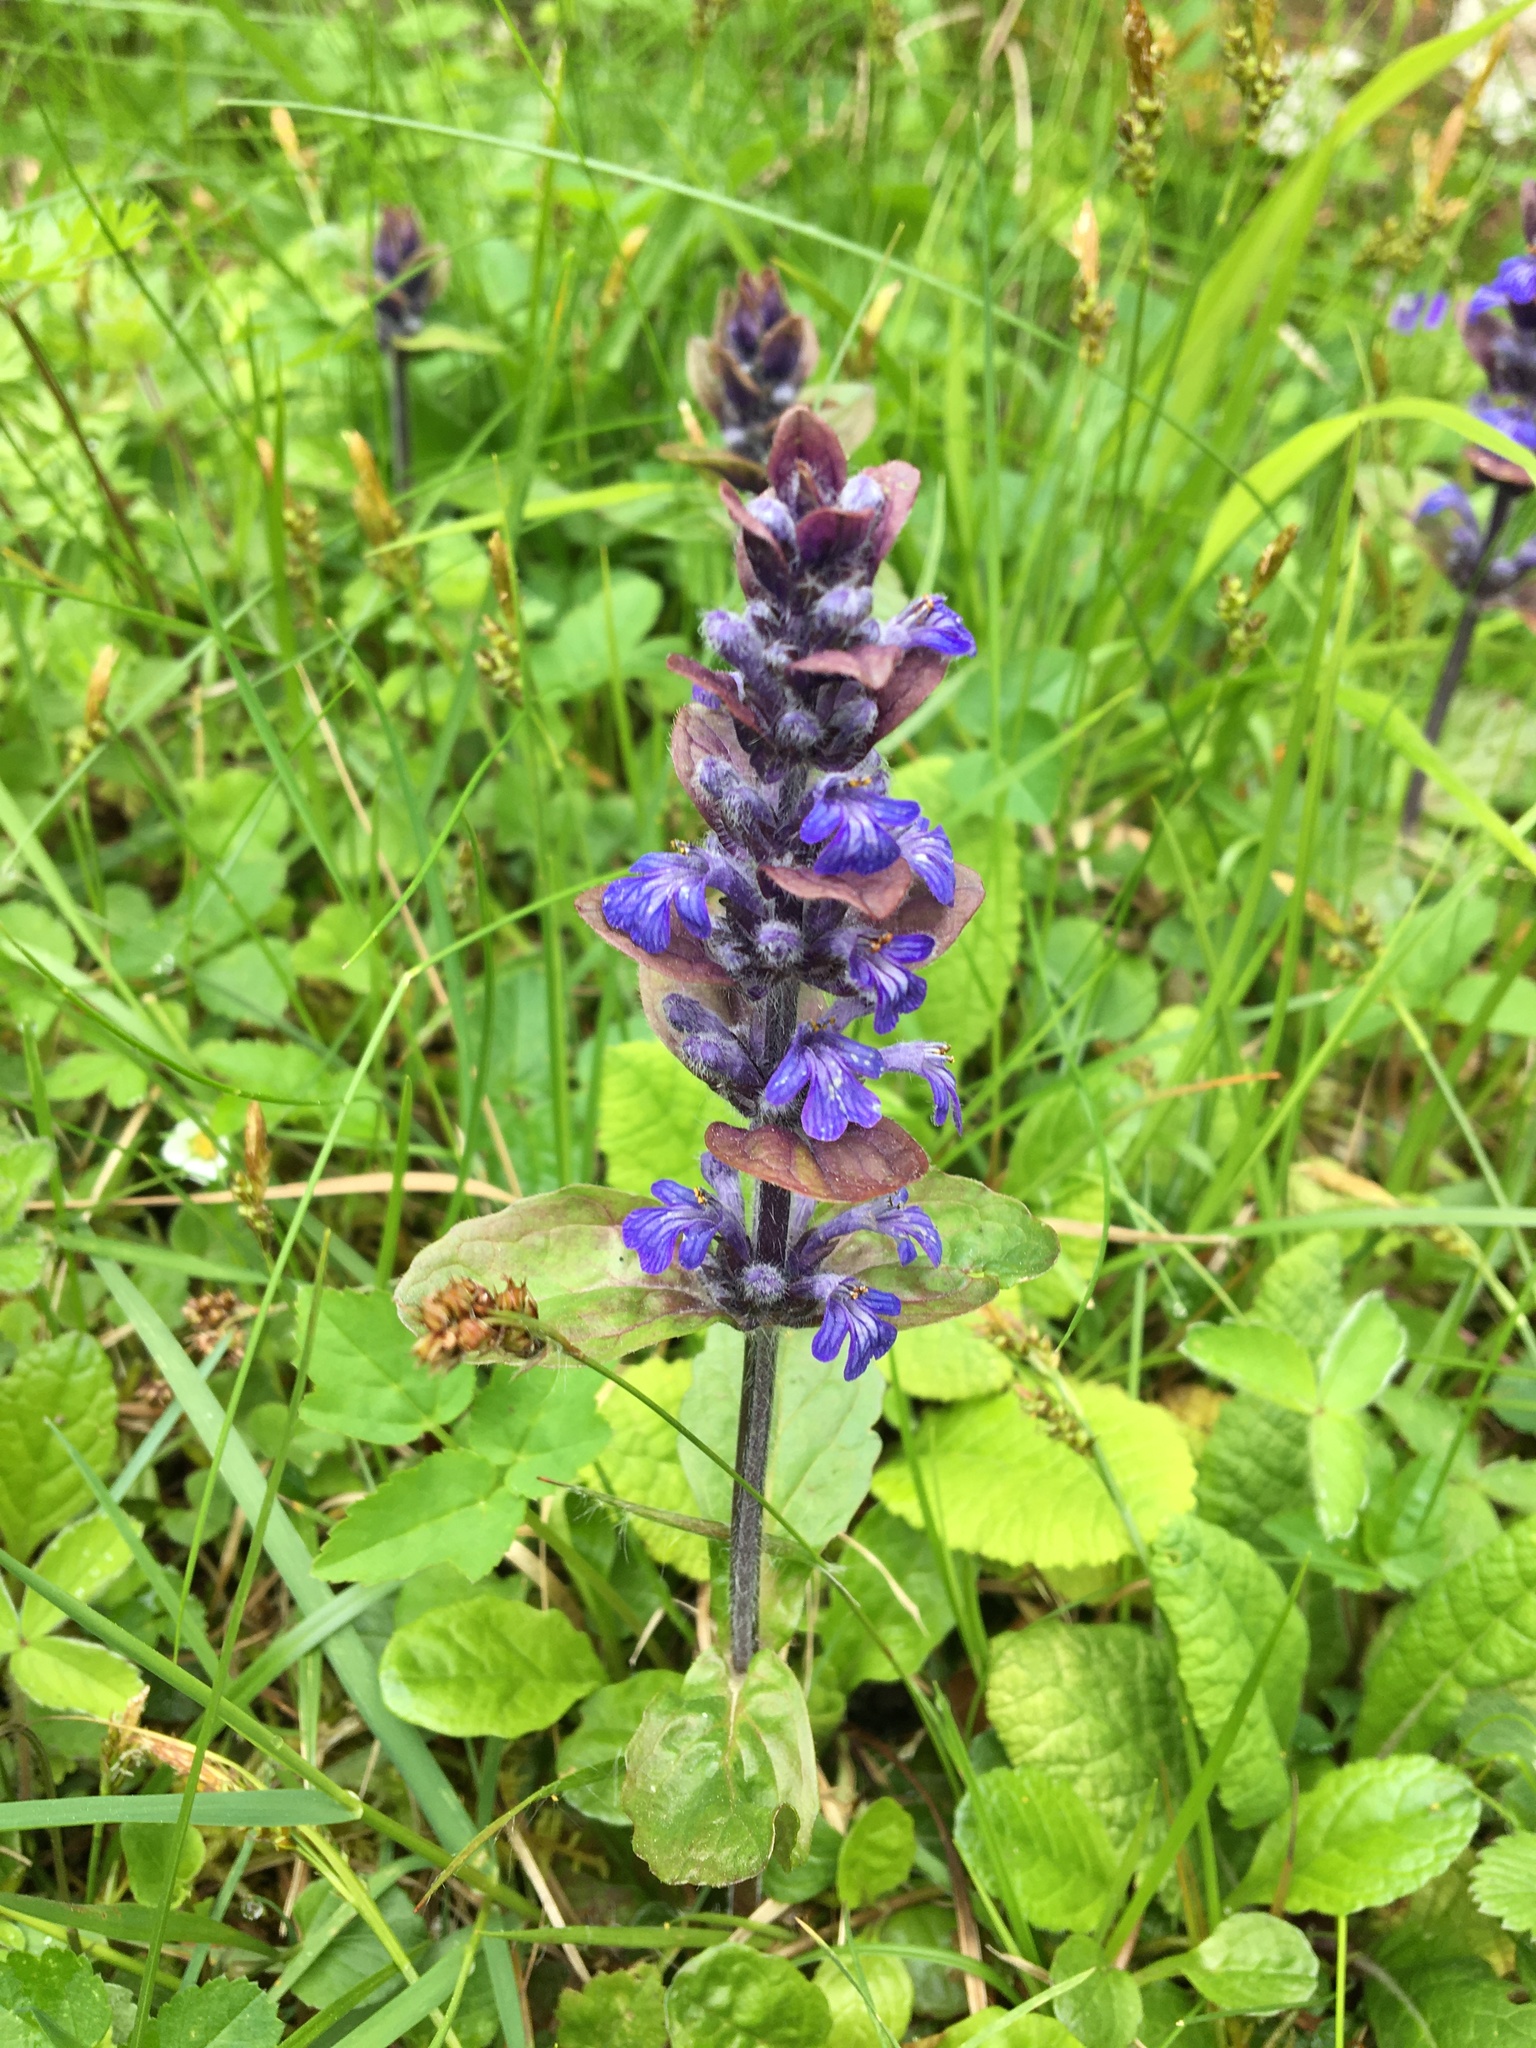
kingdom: Plantae
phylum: Tracheophyta
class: Magnoliopsida
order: Lamiales
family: Lamiaceae
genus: Ajuga
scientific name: Ajuga reptans
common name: Bugle
